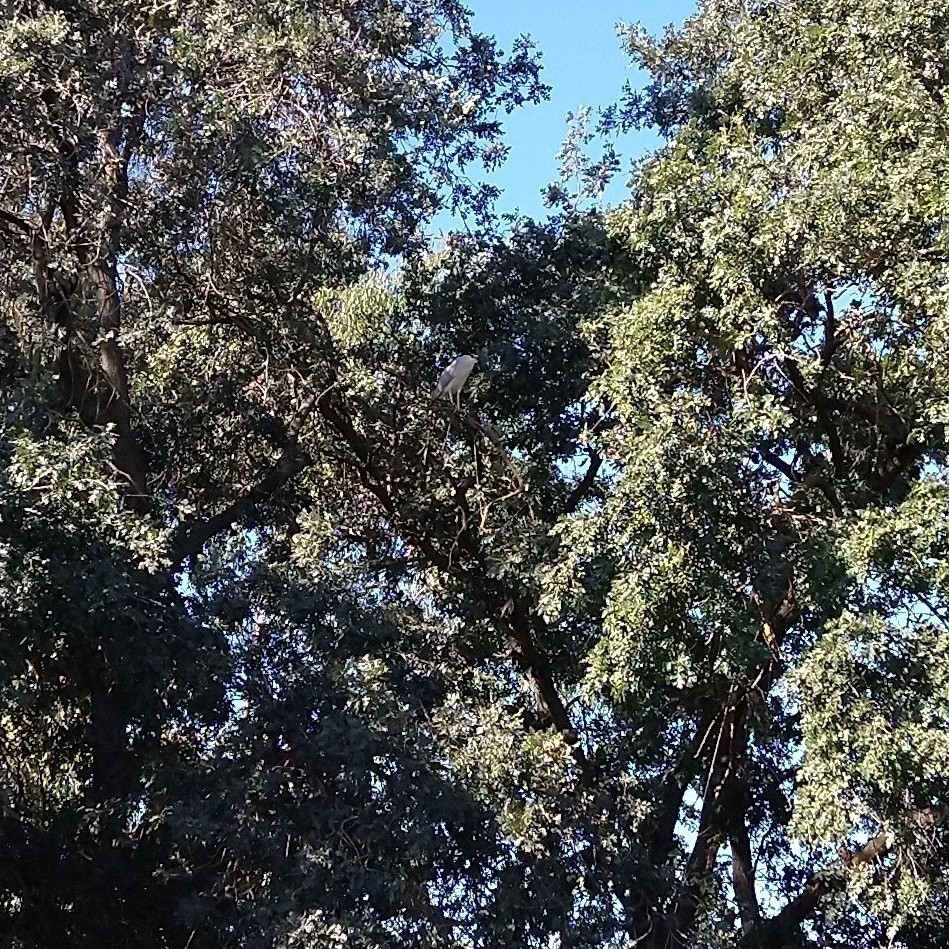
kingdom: Animalia
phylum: Chordata
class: Aves
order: Pelecaniformes
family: Ardeidae
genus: Nycticorax
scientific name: Nycticorax nycticorax
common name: Black-crowned night heron
